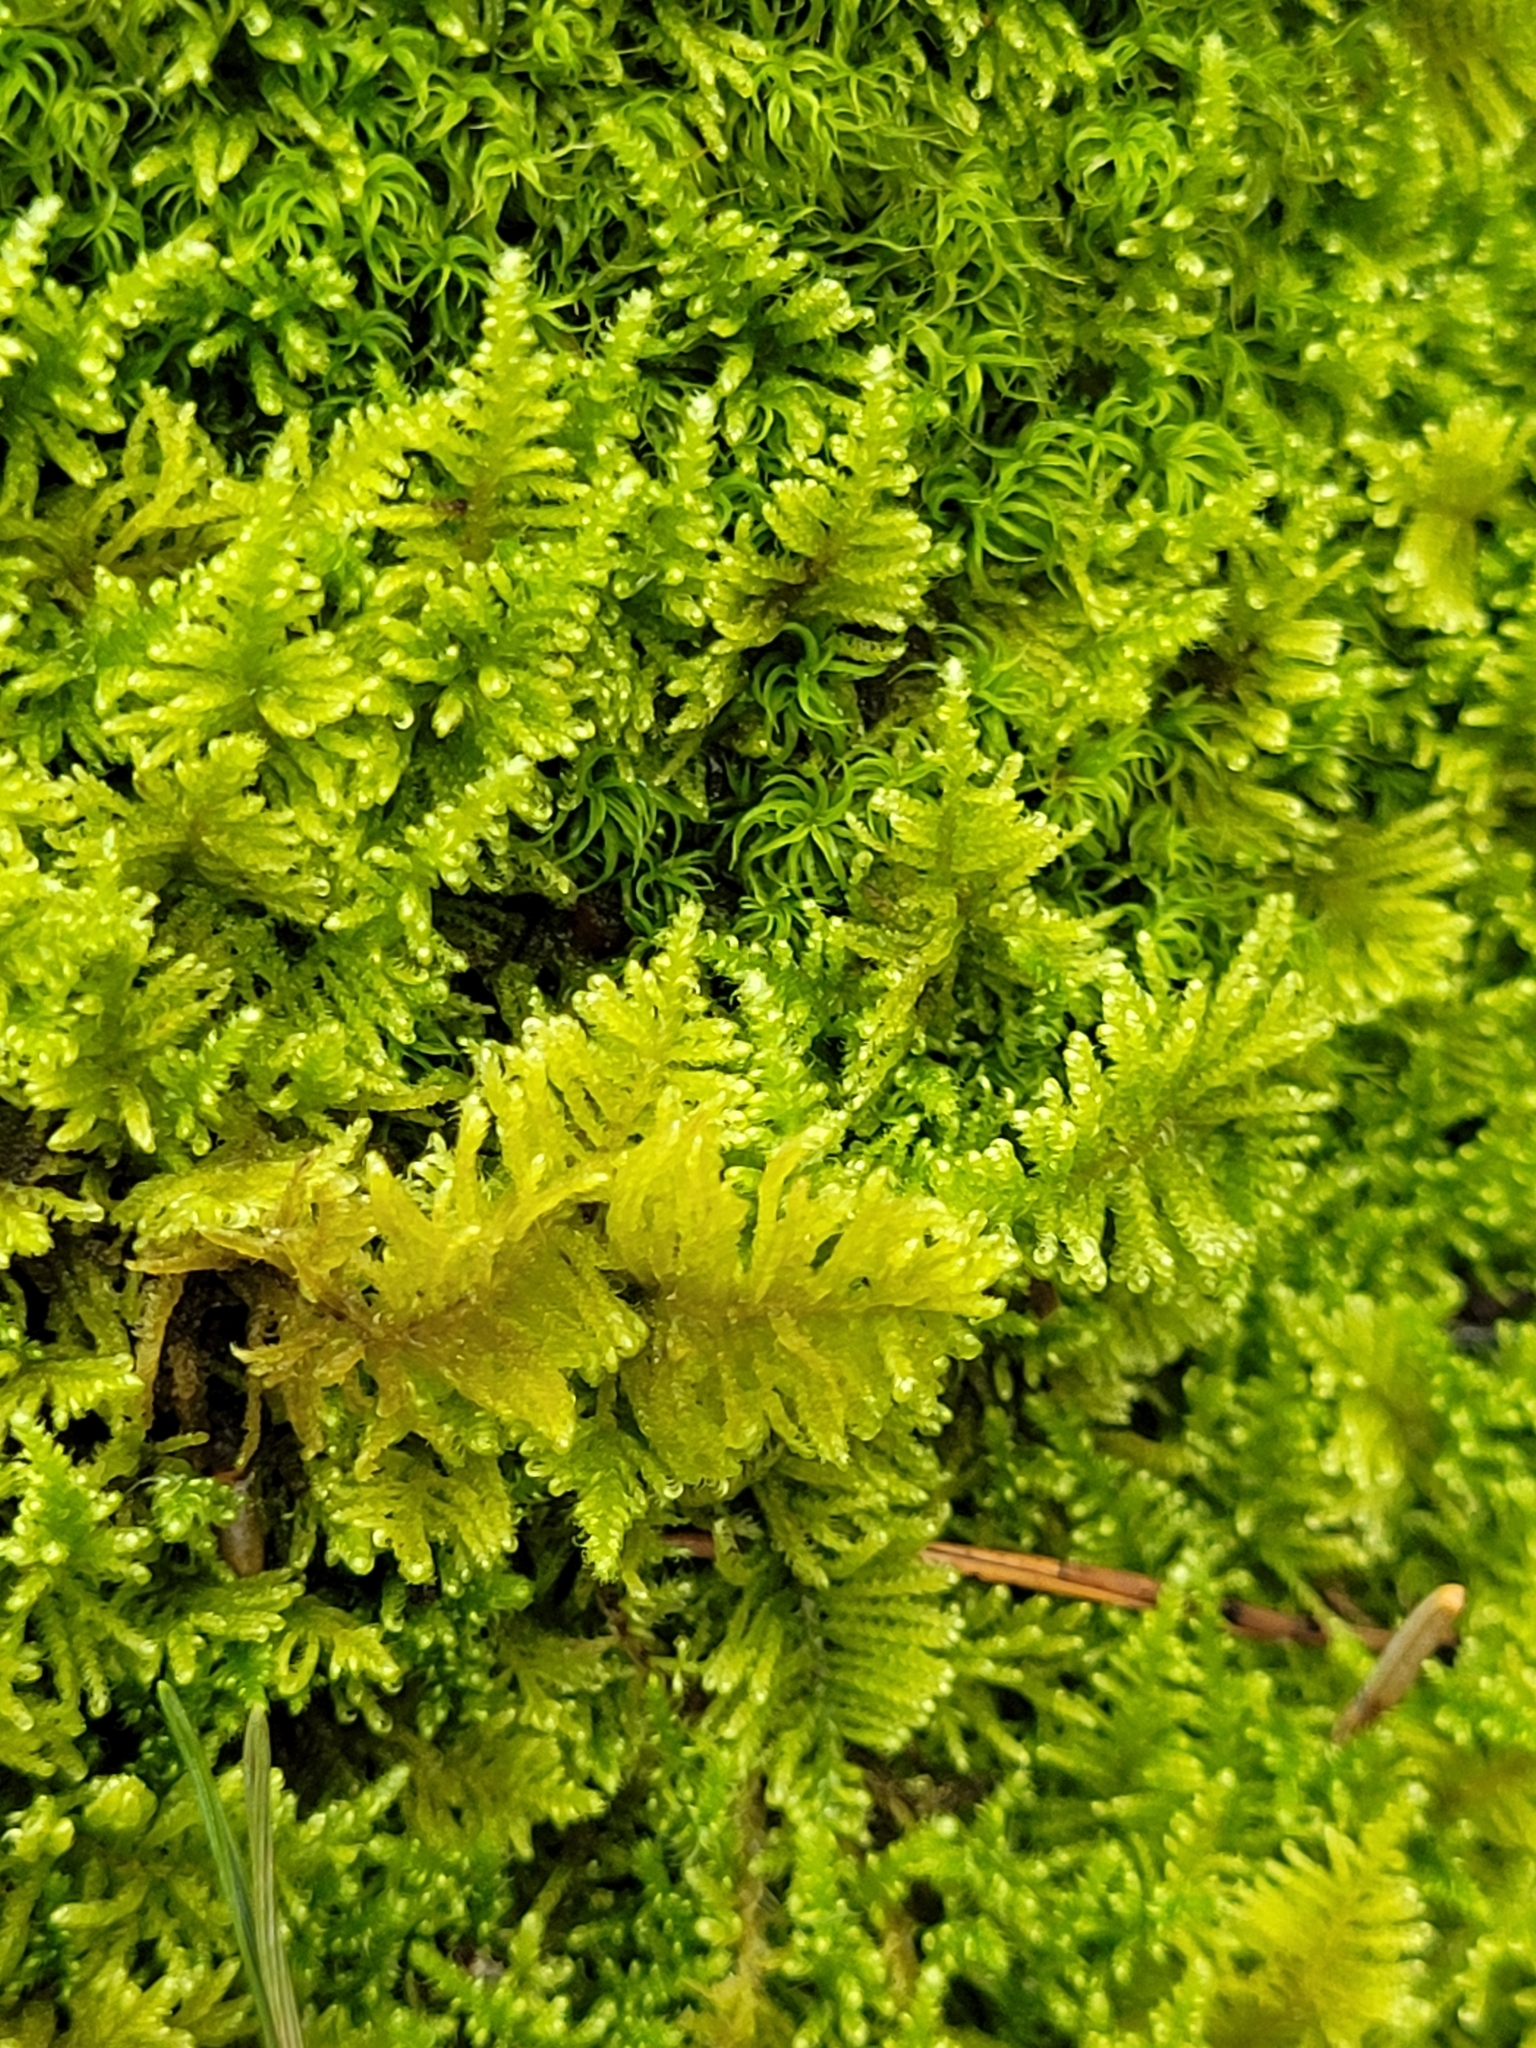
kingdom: Plantae
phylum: Bryophyta
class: Bryopsida
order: Hypnales
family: Myuriaceae
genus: Ctenidium
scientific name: Ctenidium molluscum
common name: Chalk comb-moss
